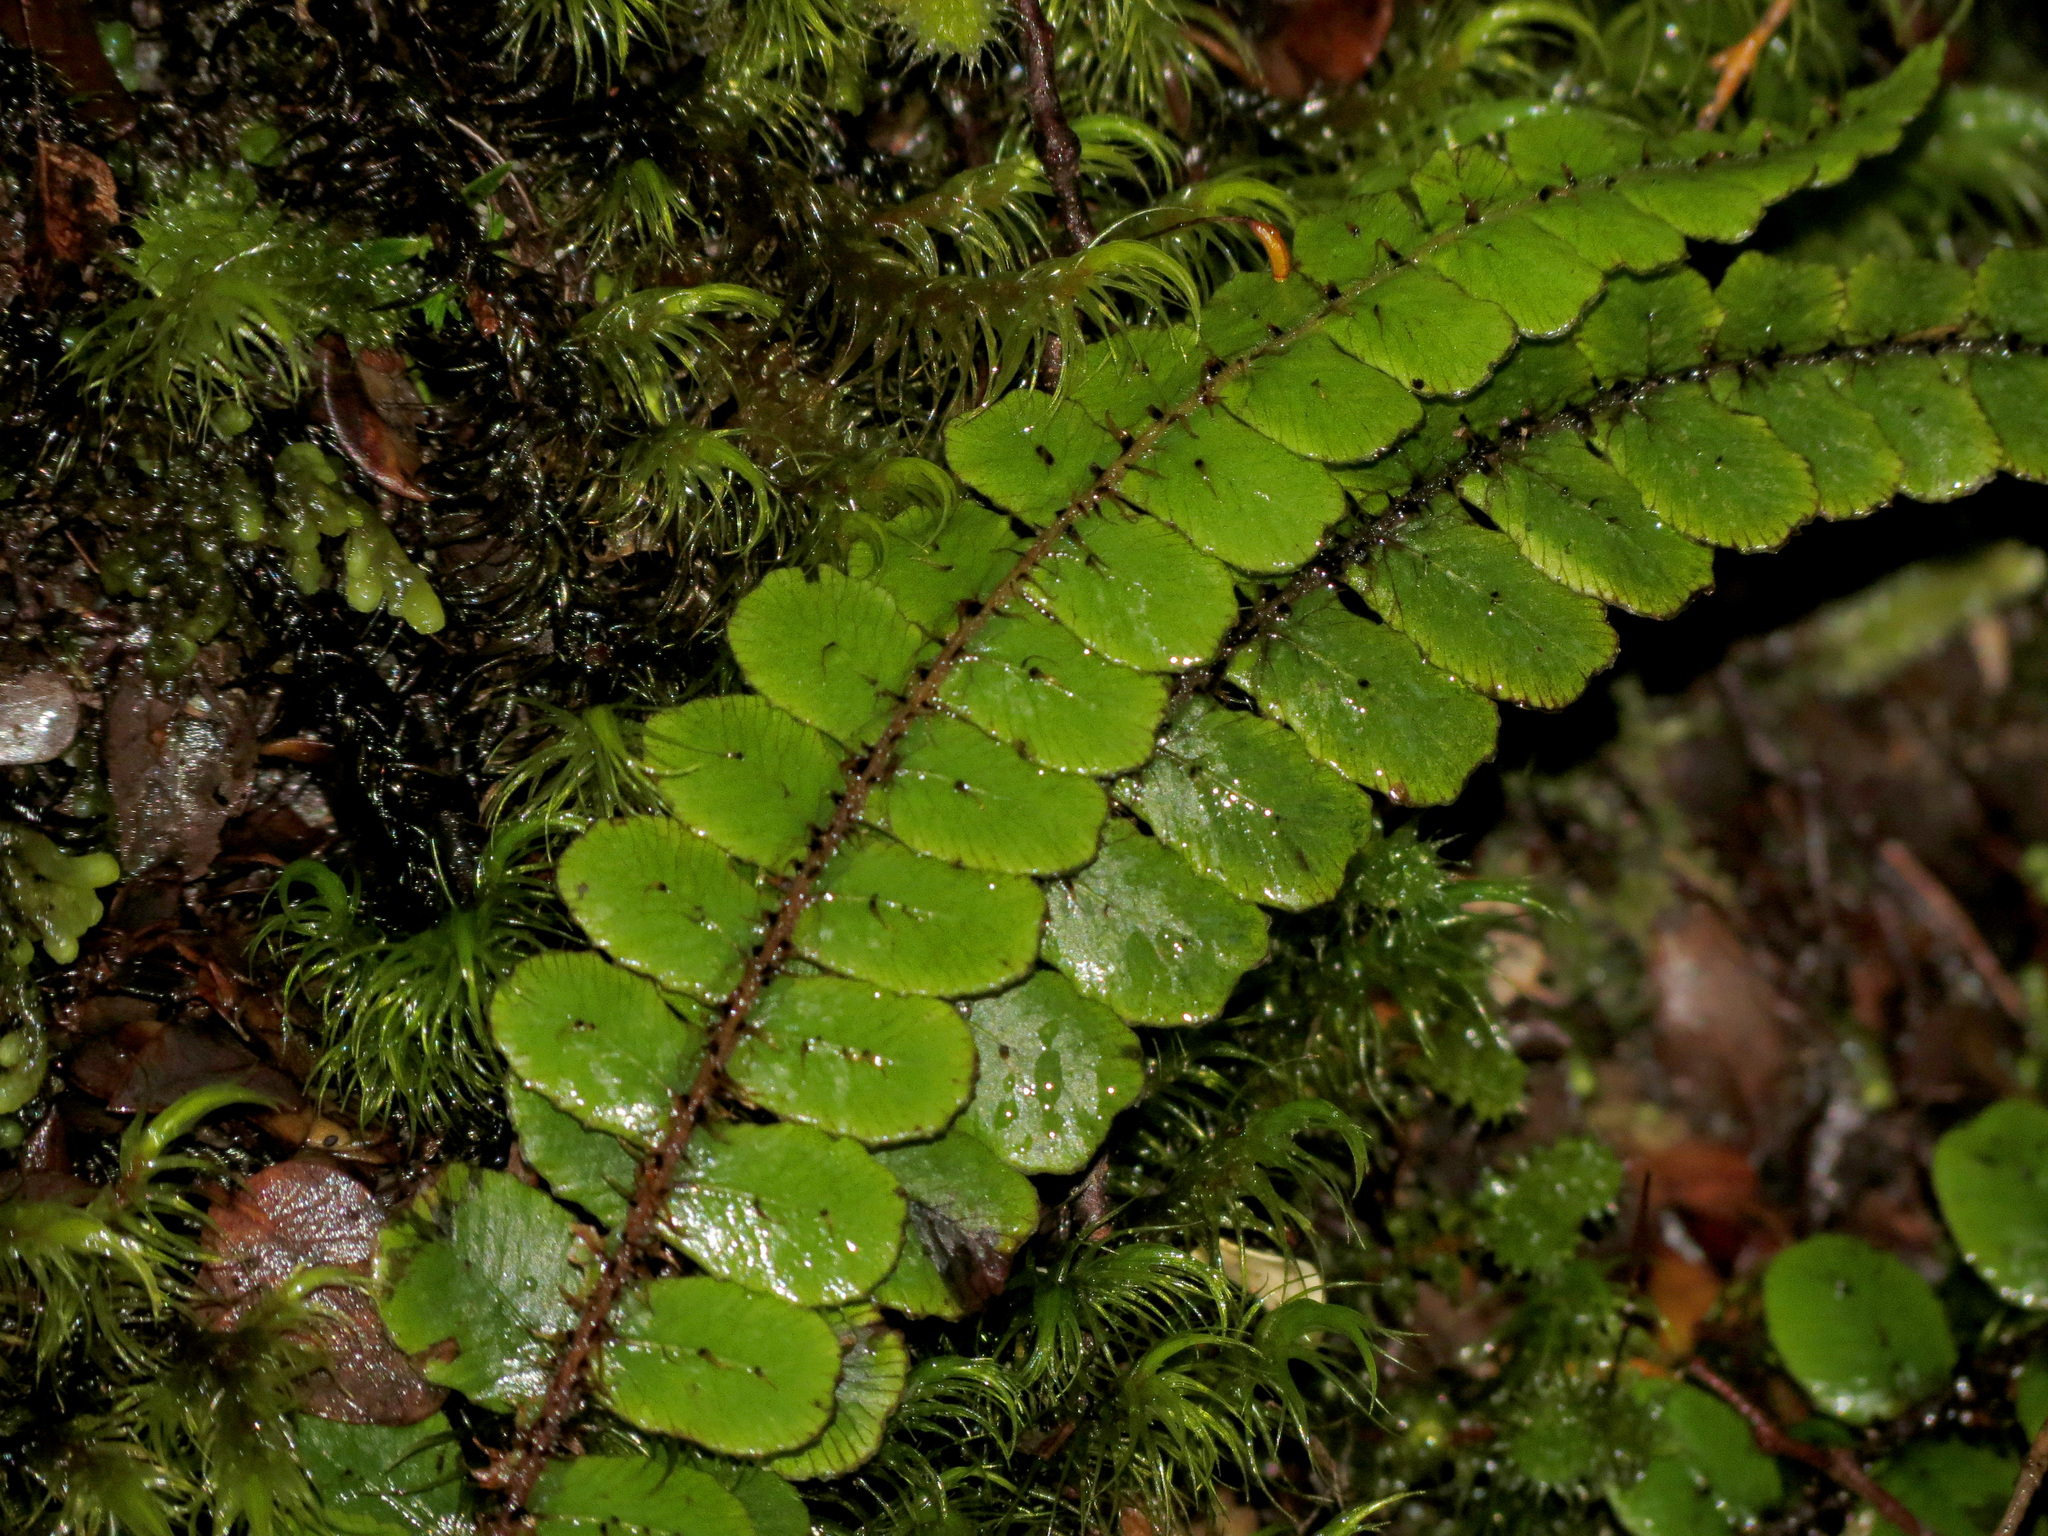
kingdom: Plantae
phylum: Tracheophyta
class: Polypodiopsida
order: Polypodiales
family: Blechnaceae
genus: Cranfillia
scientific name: Cranfillia fluviatilis
